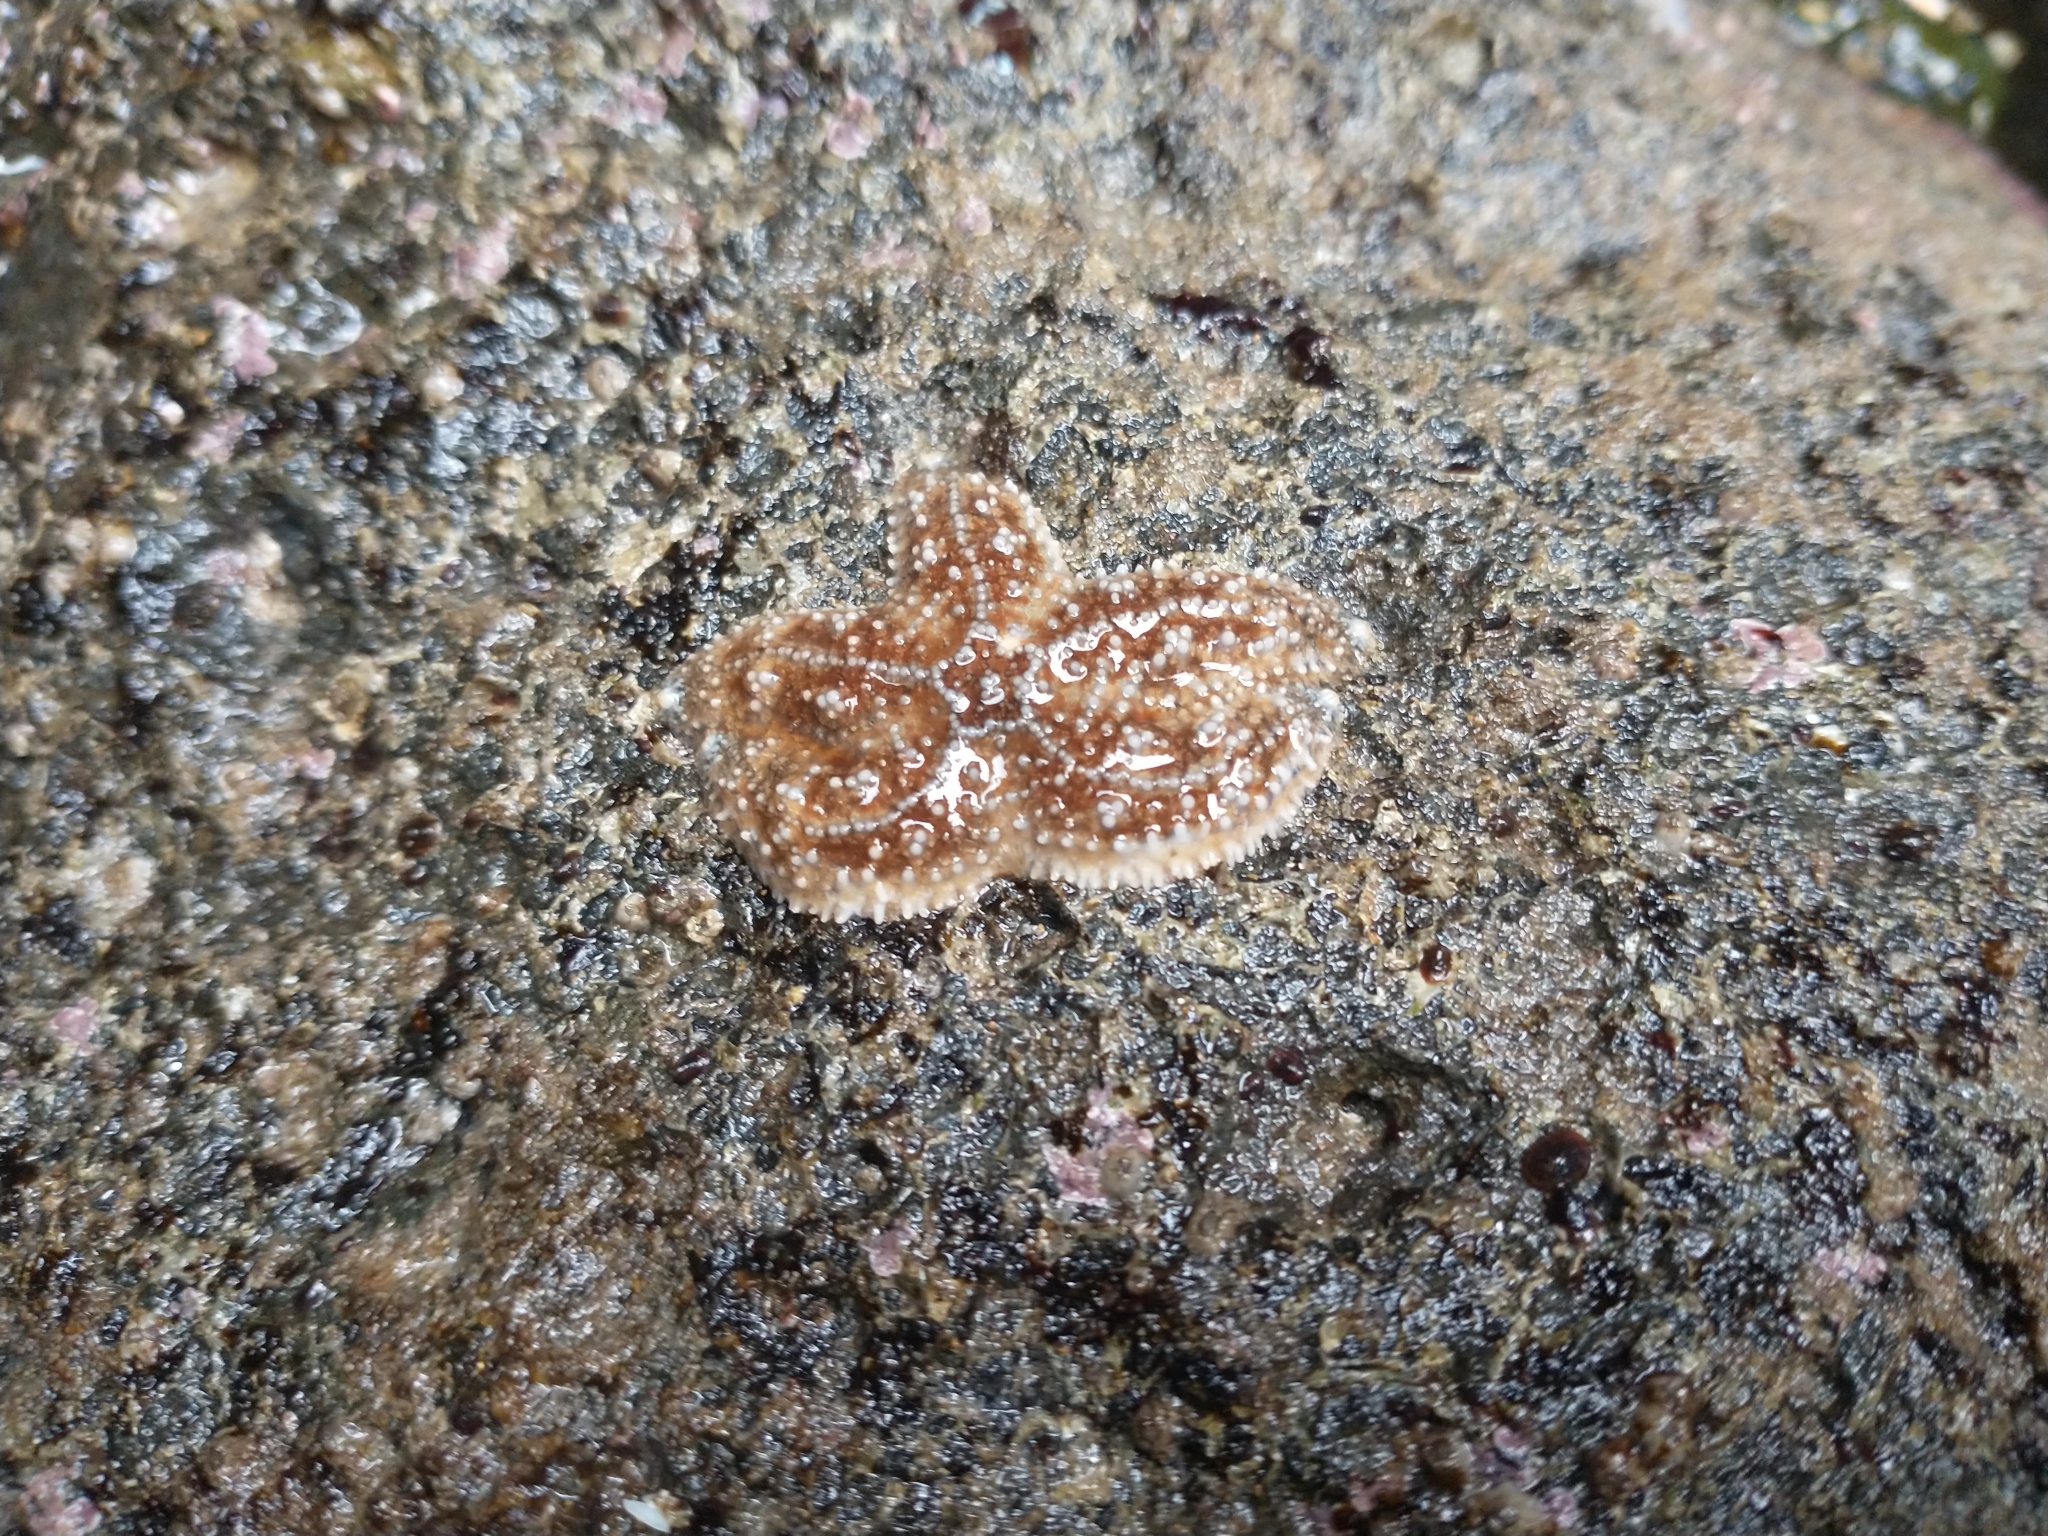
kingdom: Animalia
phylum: Echinodermata
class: Asteroidea
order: Forcipulatida
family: Asteriidae
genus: Pisaster
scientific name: Pisaster ochraceus
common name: Ochre stars
